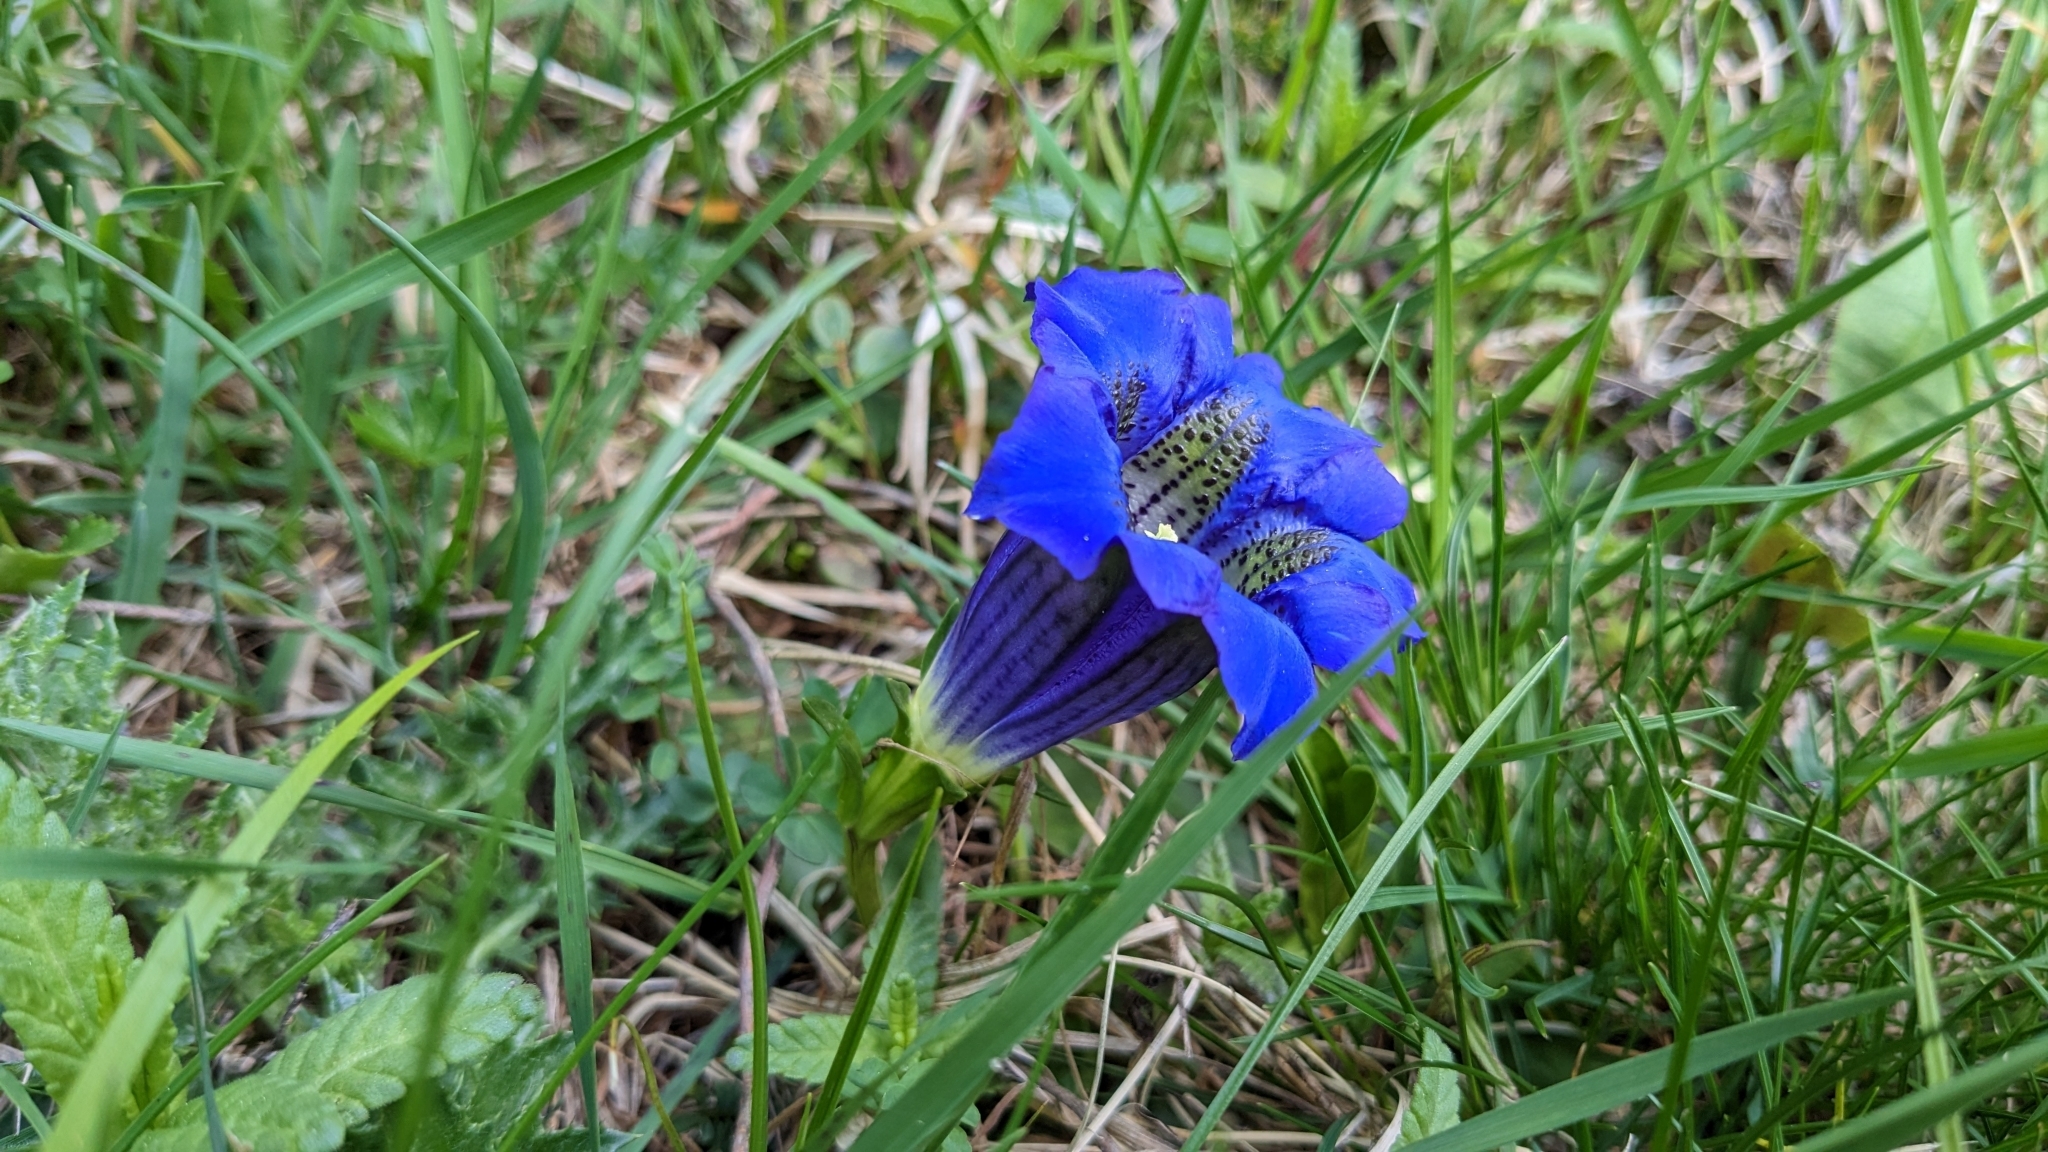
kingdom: Plantae
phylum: Tracheophyta
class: Magnoliopsida
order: Gentianales
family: Gentianaceae
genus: Gentiana
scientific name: Gentiana acaulis
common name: Trumpet gentian
